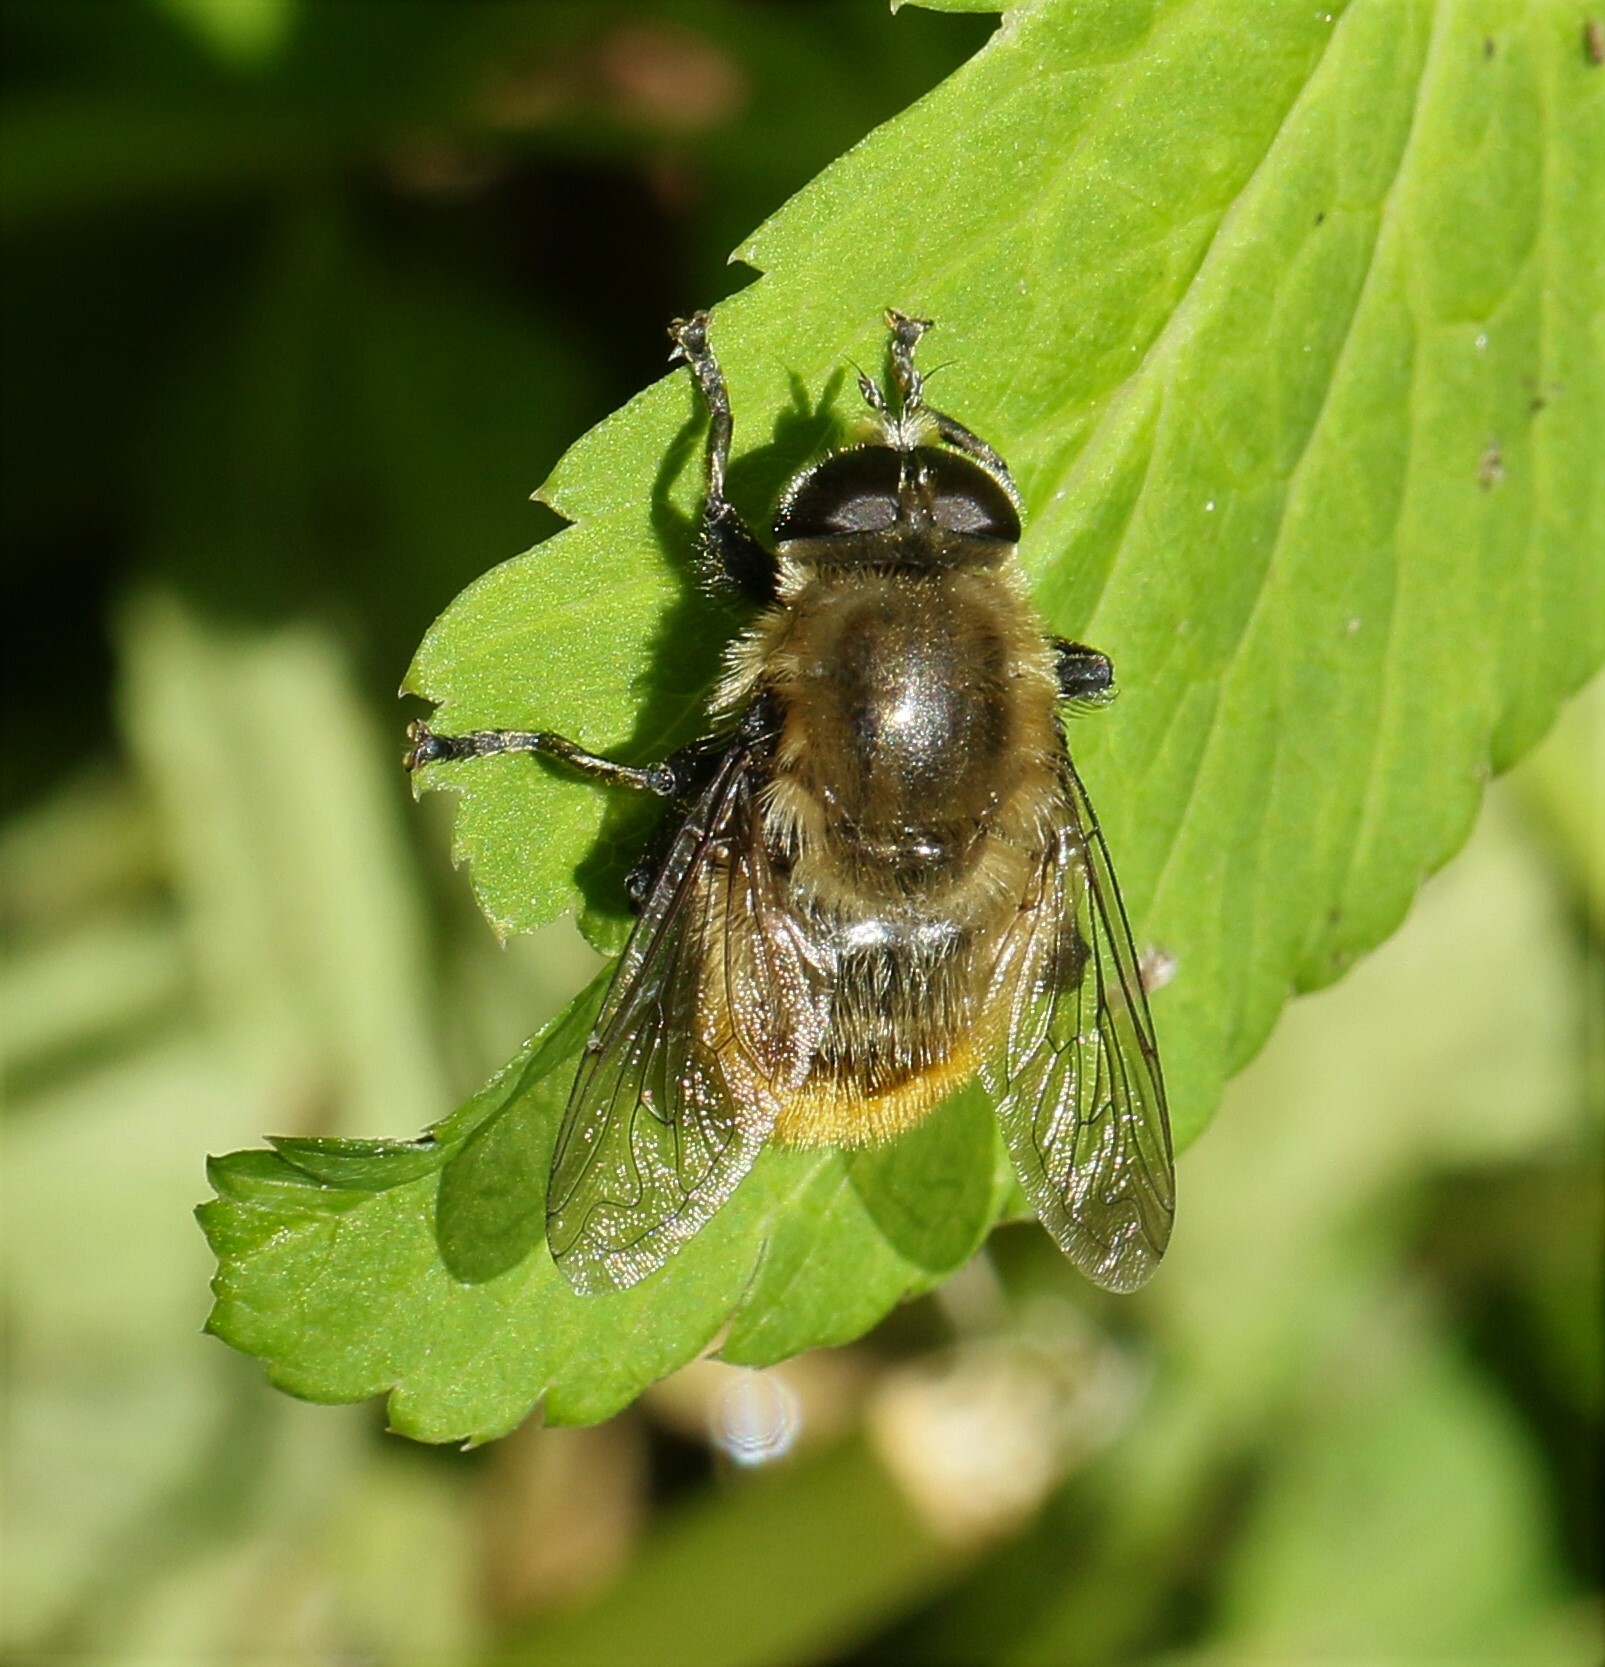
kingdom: Animalia
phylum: Arthropoda
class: Insecta
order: Diptera
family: Syrphidae
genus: Merodon
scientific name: Merodon equestris
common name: Greater bulb-fly
